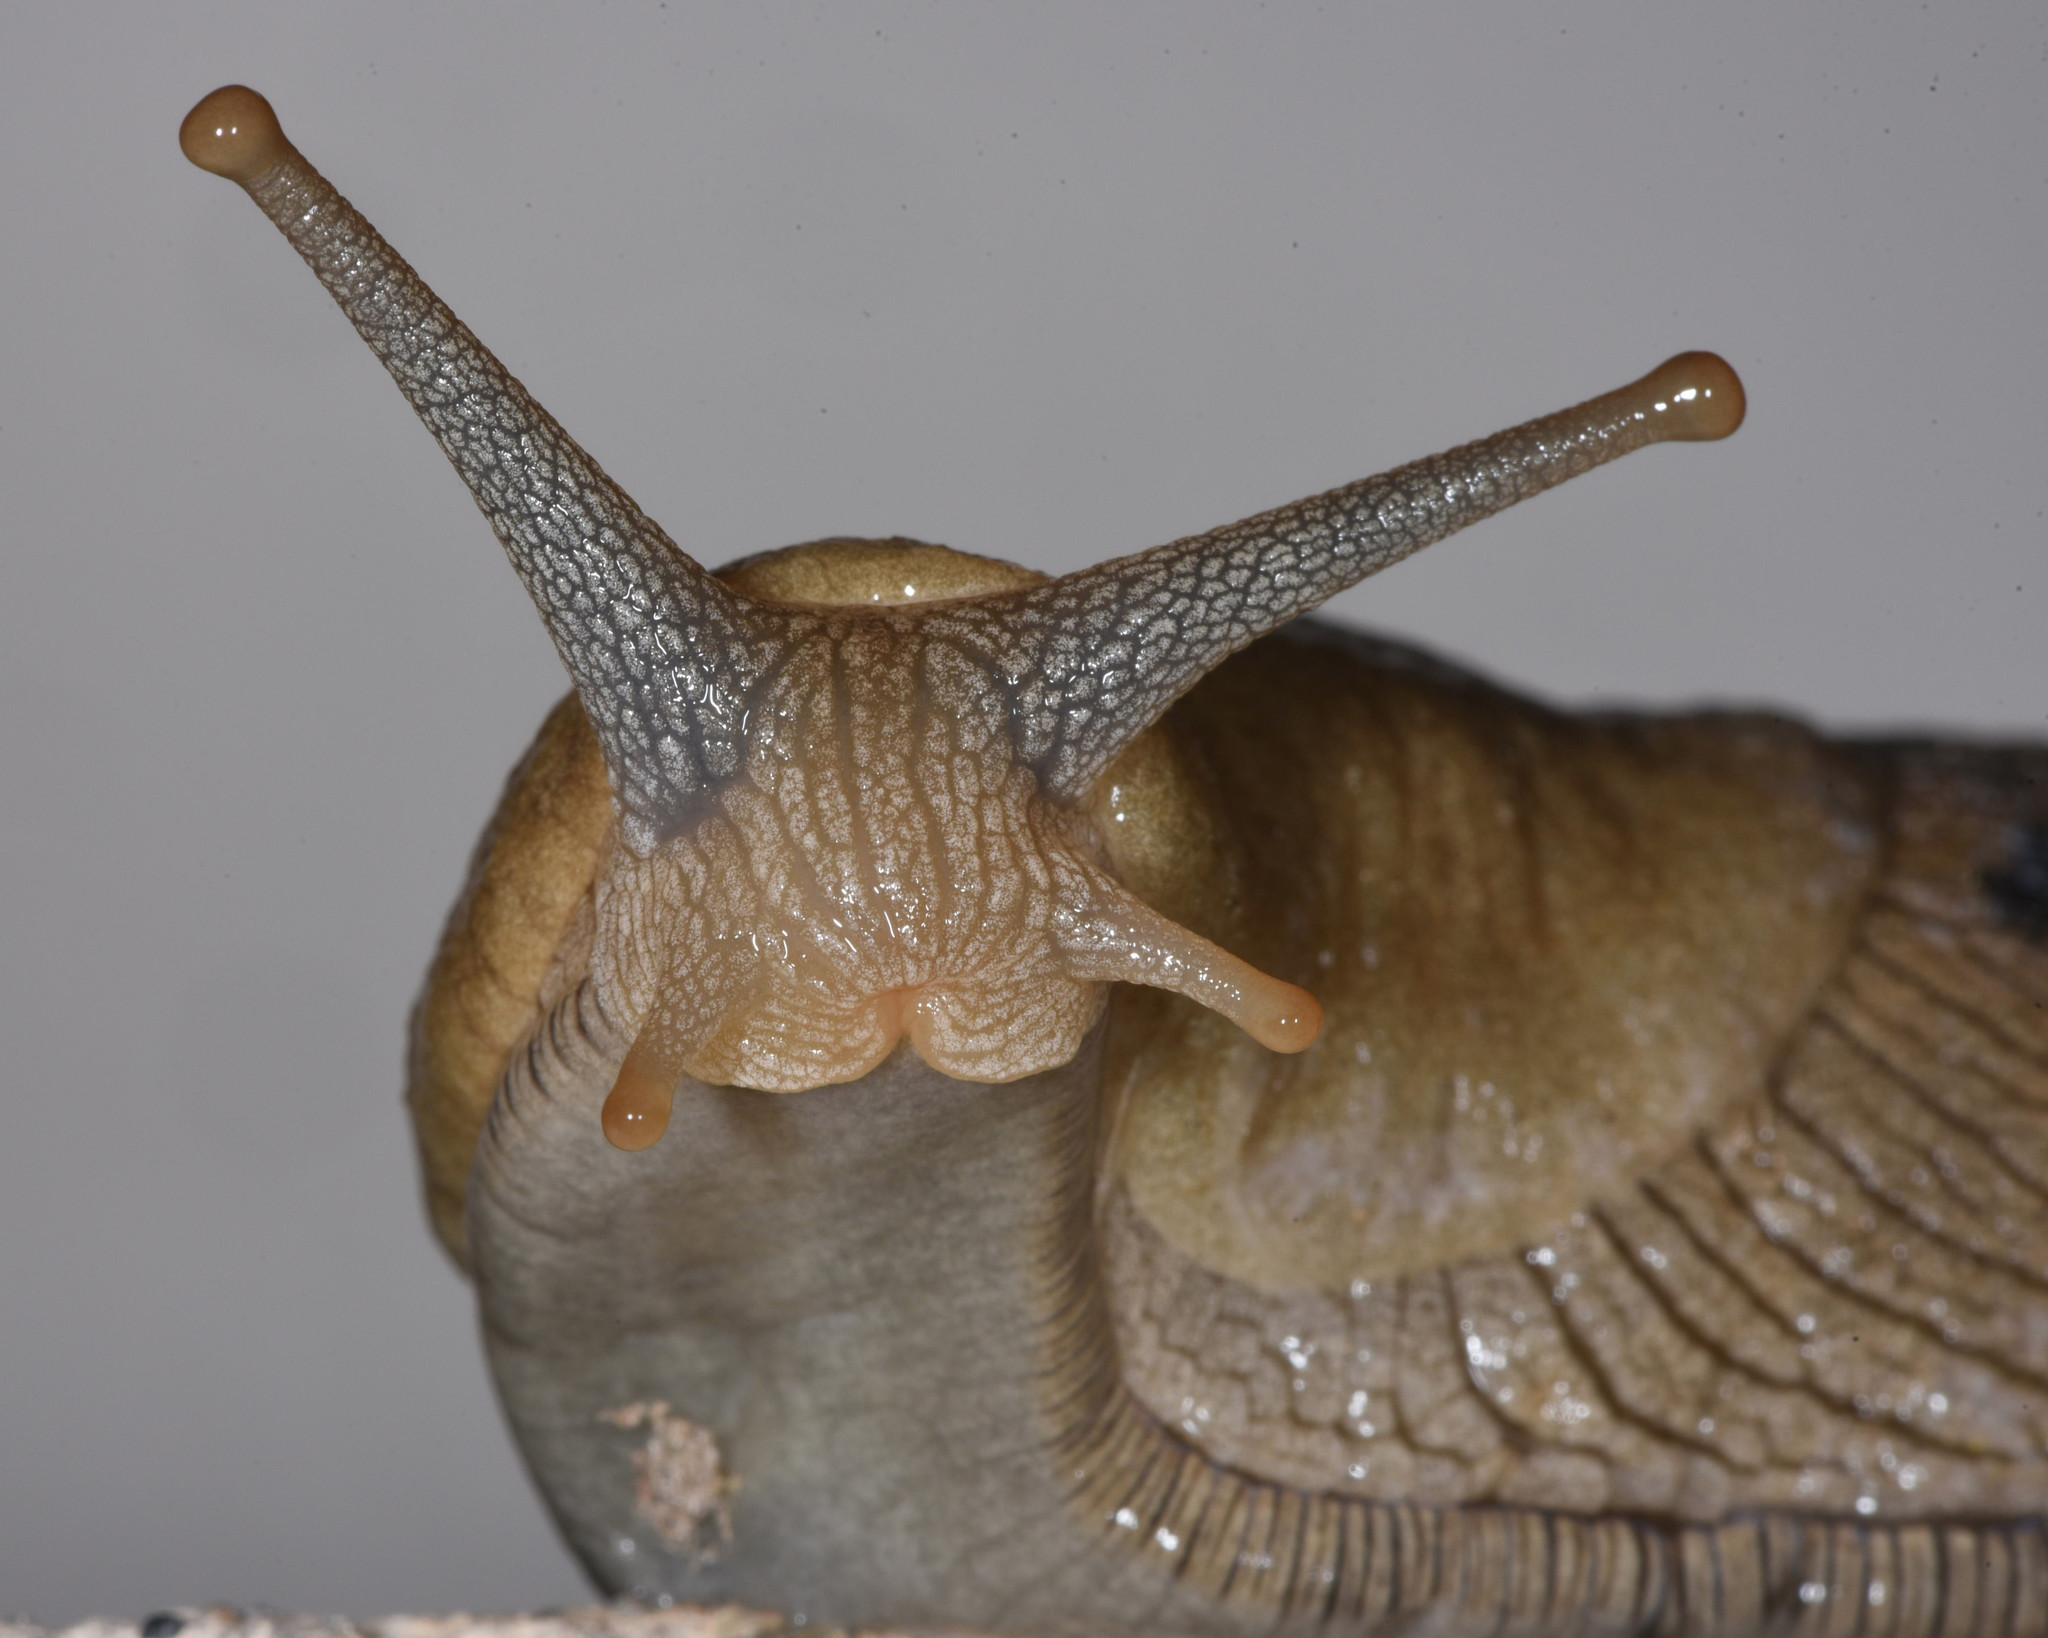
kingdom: Animalia
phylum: Mollusca
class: Gastropoda
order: Stylommatophora
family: Ariolimacidae
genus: Ariolimax
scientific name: Ariolimax buttoni
